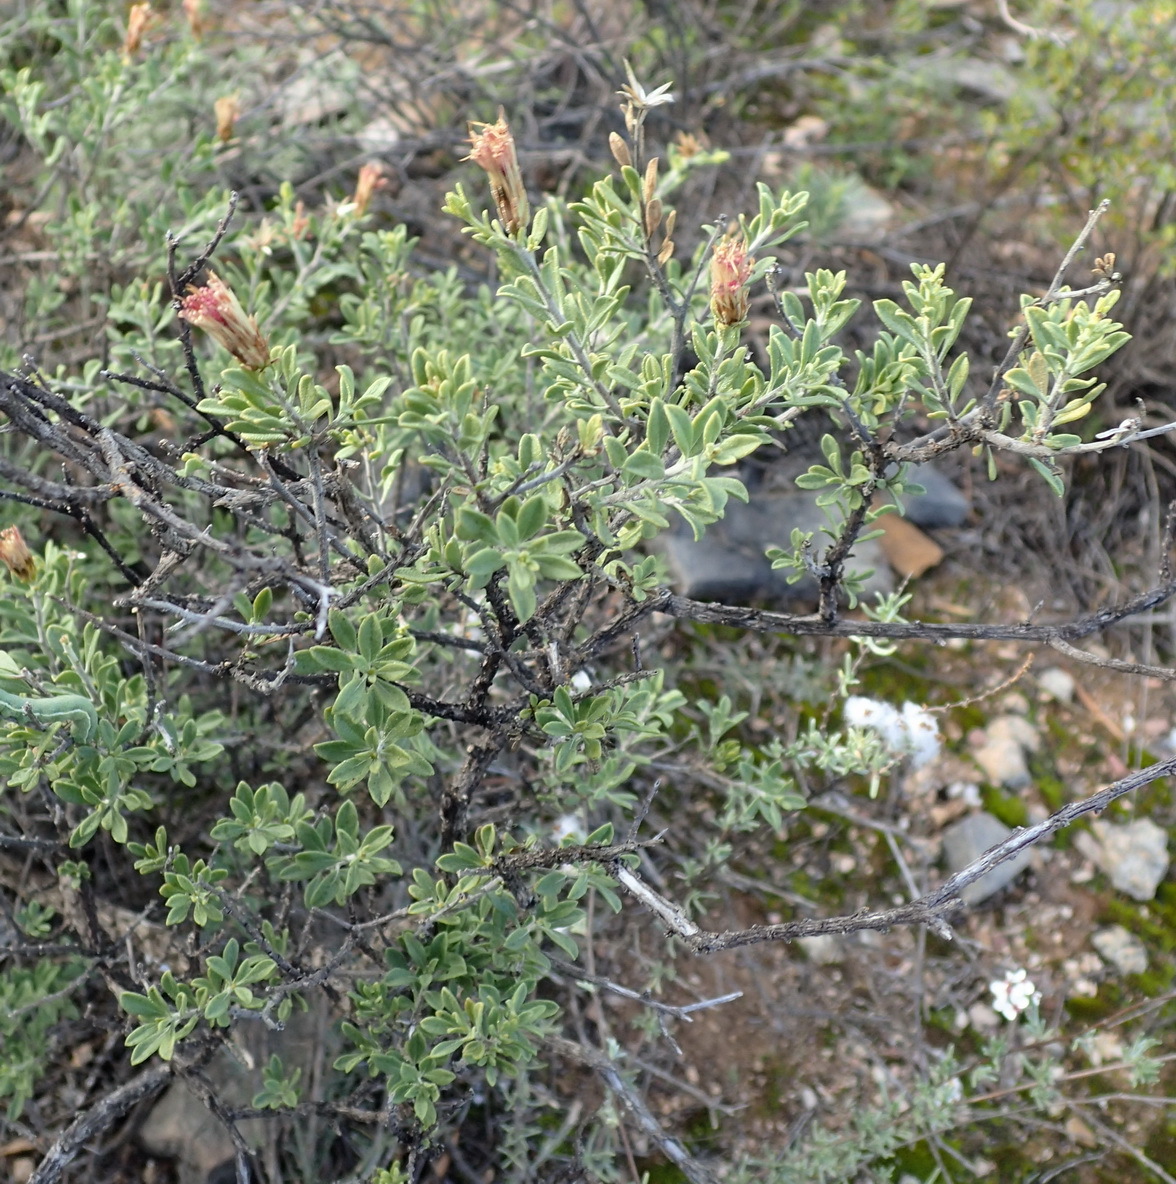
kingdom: Plantae
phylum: Tracheophyta
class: Magnoliopsida
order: Asterales
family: Asteraceae
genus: Pegolettia
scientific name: Pegolettia retrofracta
